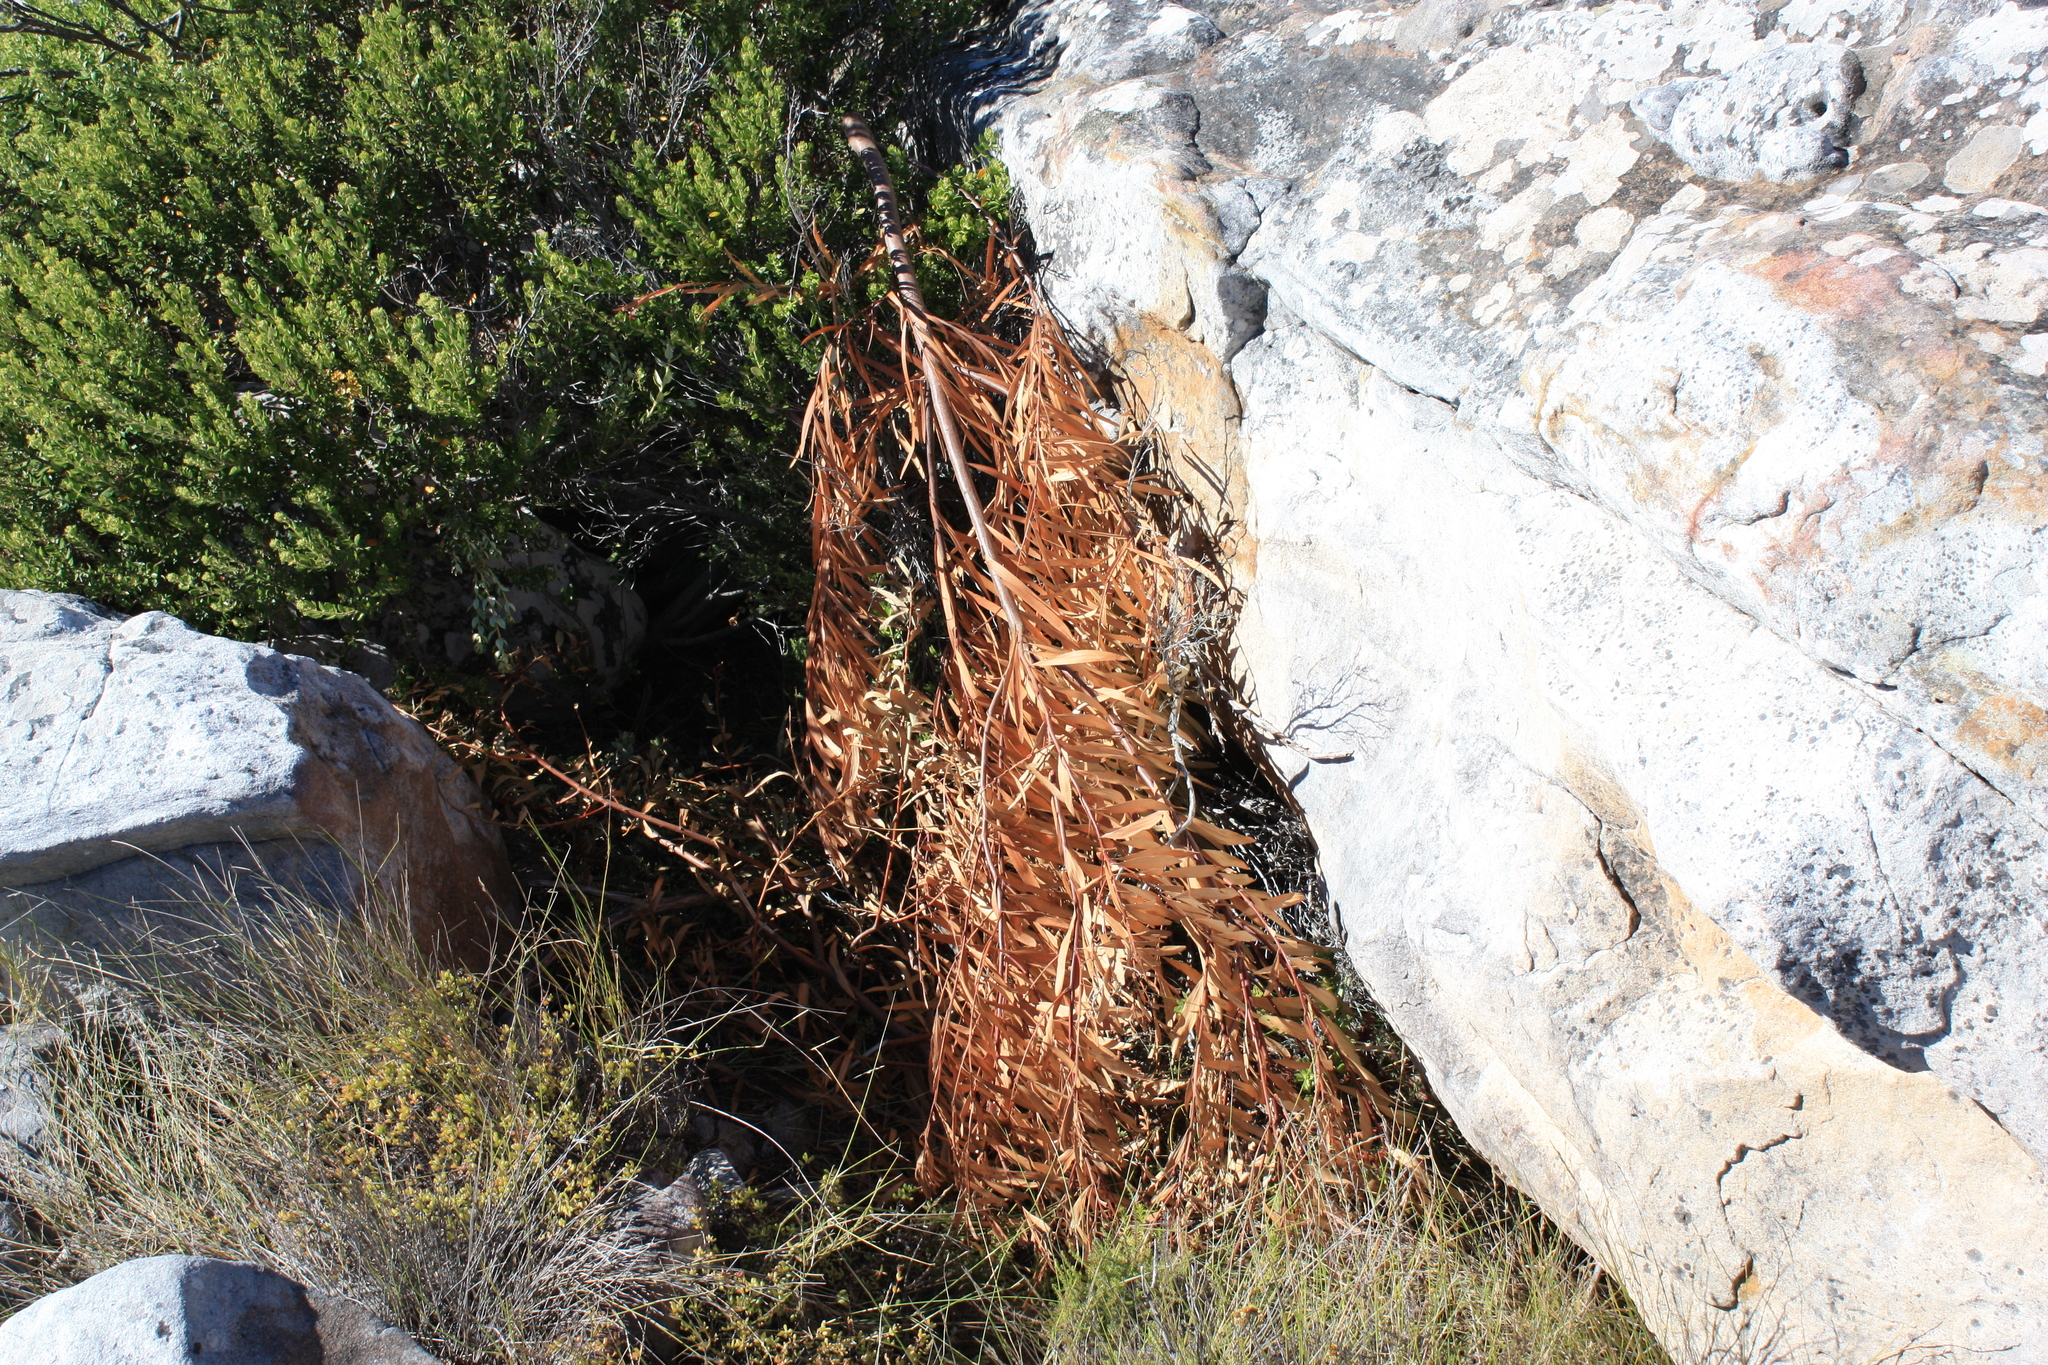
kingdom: Plantae
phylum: Tracheophyta
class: Magnoliopsida
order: Fabales
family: Fabaceae
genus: Acacia
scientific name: Acacia longifolia
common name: Sydney golden wattle
